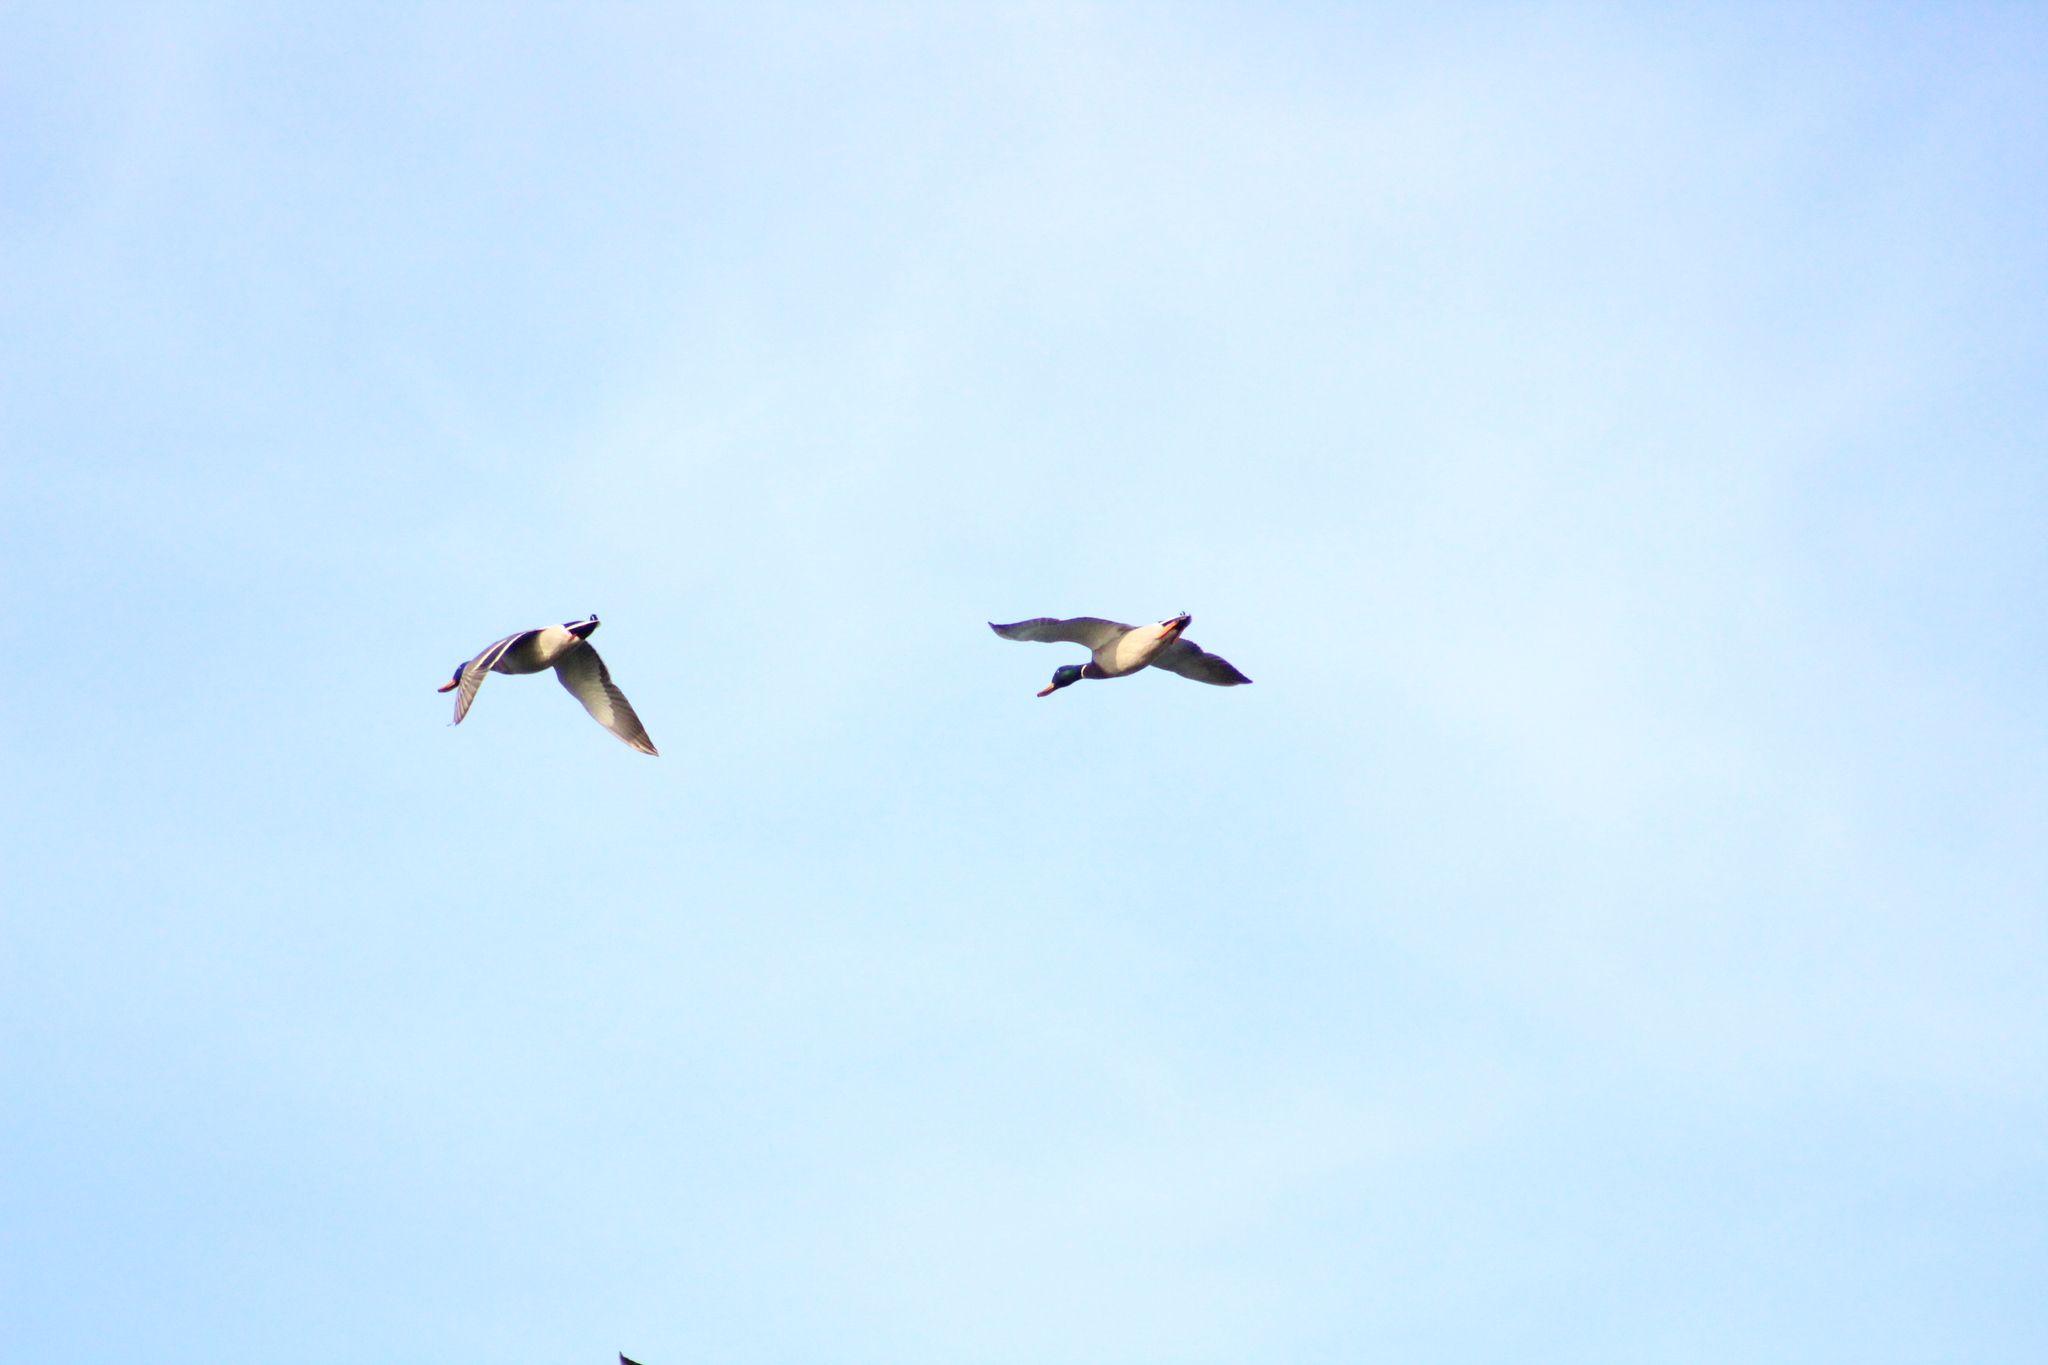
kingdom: Animalia
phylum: Chordata
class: Aves
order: Anseriformes
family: Anatidae
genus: Anas
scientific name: Anas platyrhynchos
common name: Mallard
